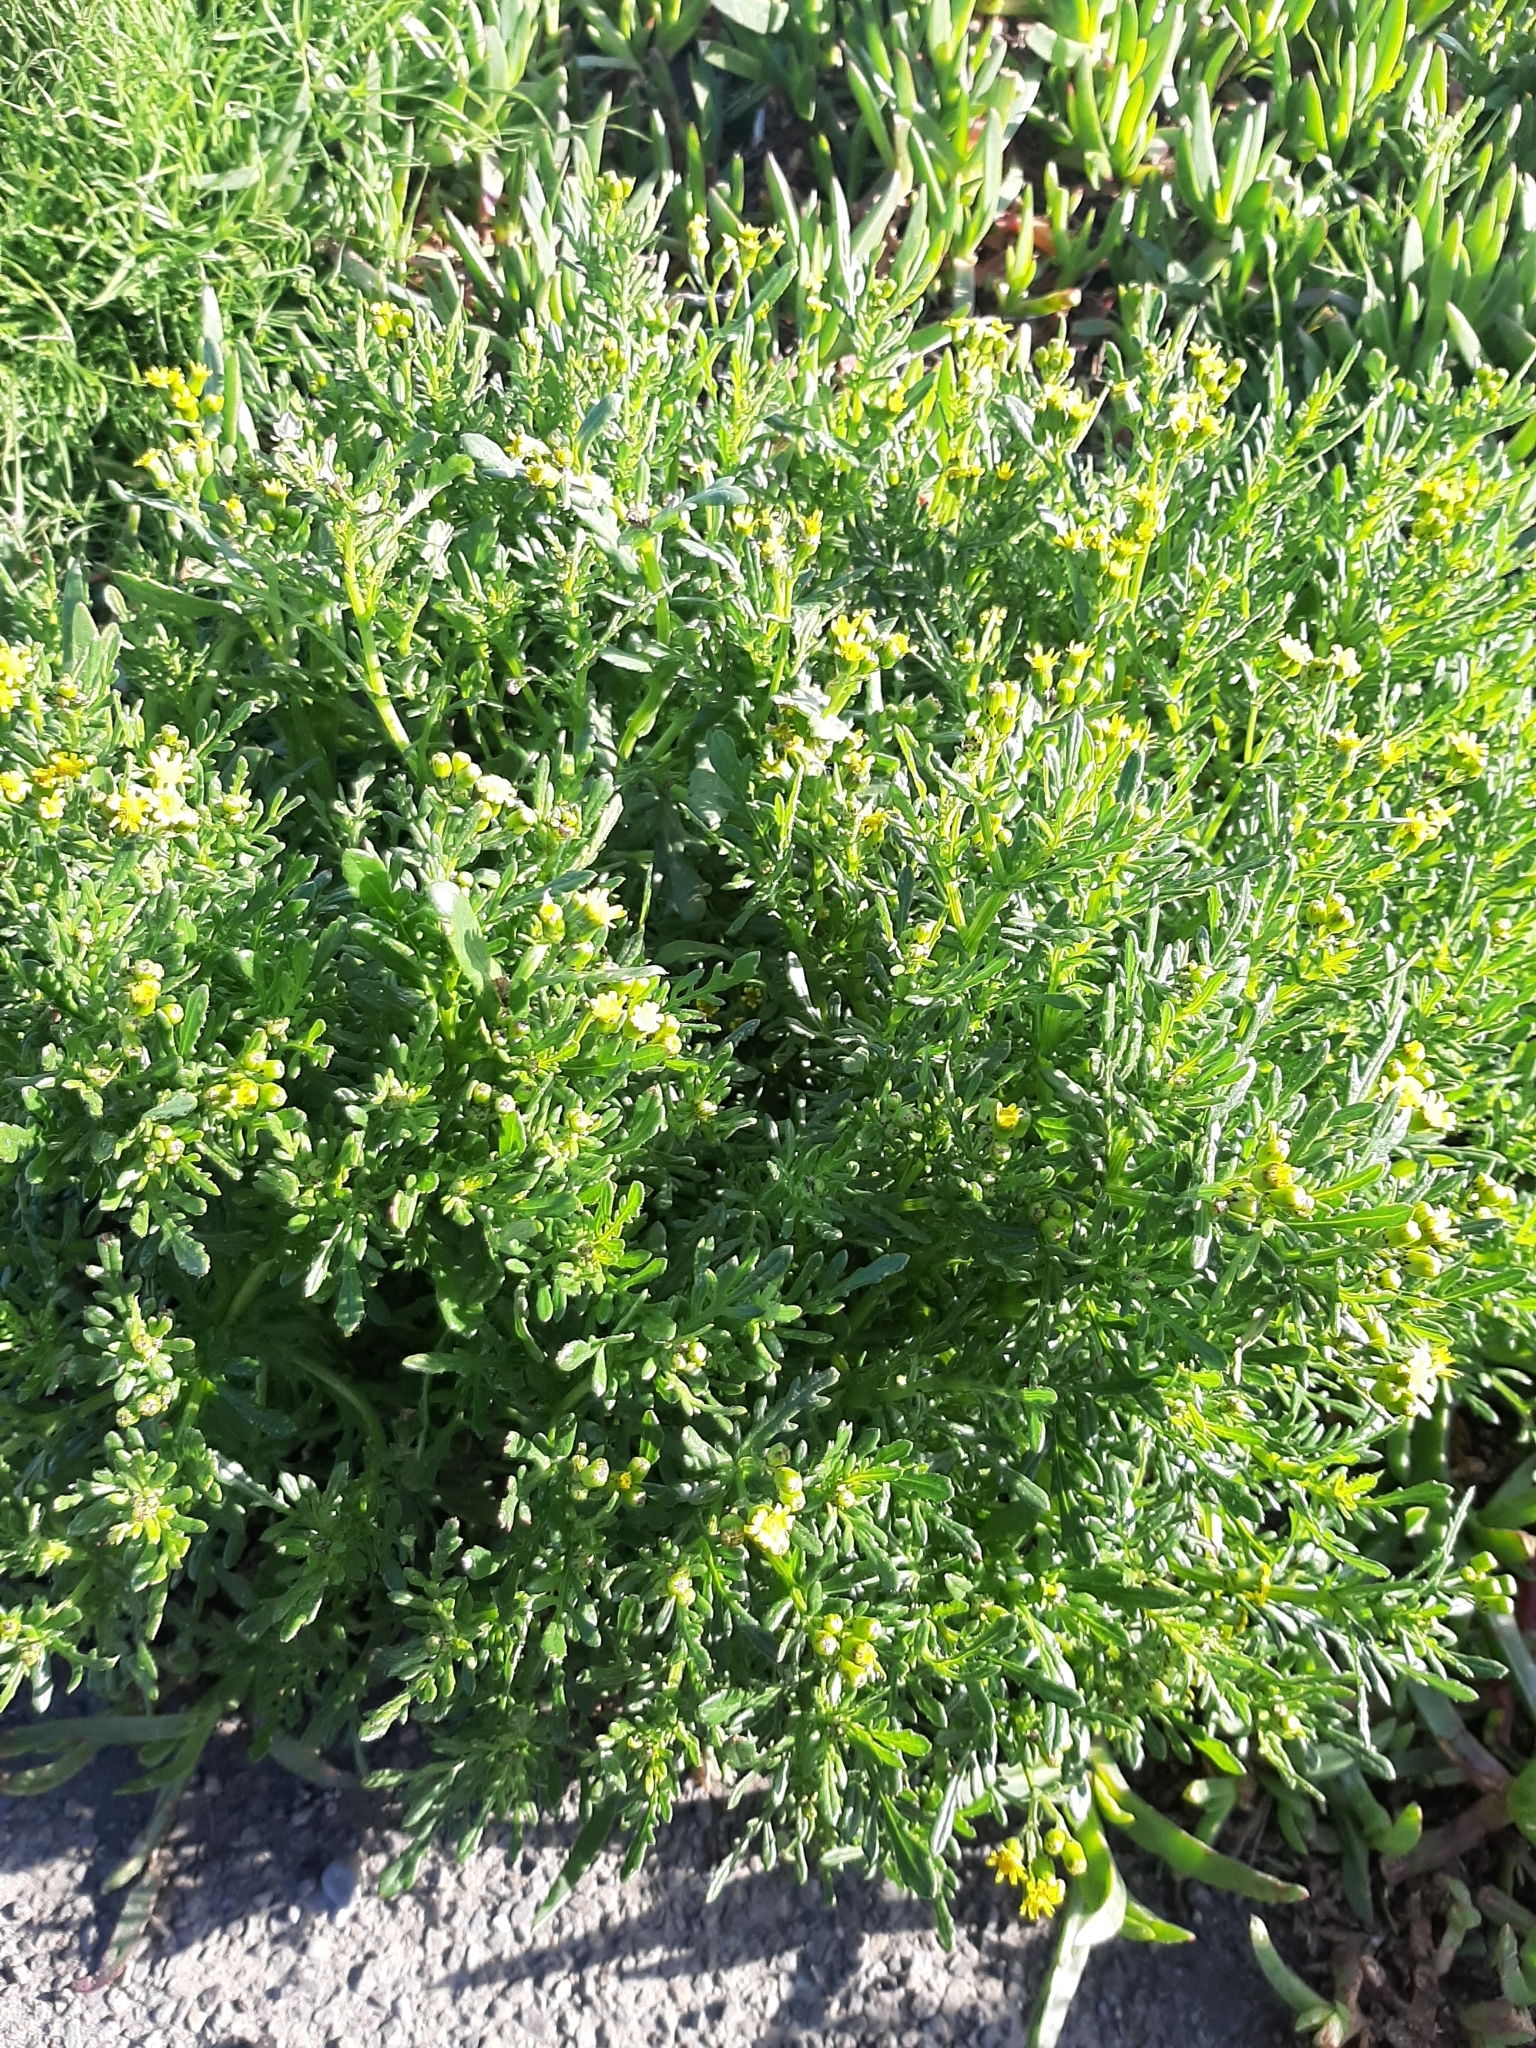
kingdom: Plantae
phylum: Tracheophyta
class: Magnoliopsida
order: Asterales
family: Asteraceae
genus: Senecio
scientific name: Senecio lautus
